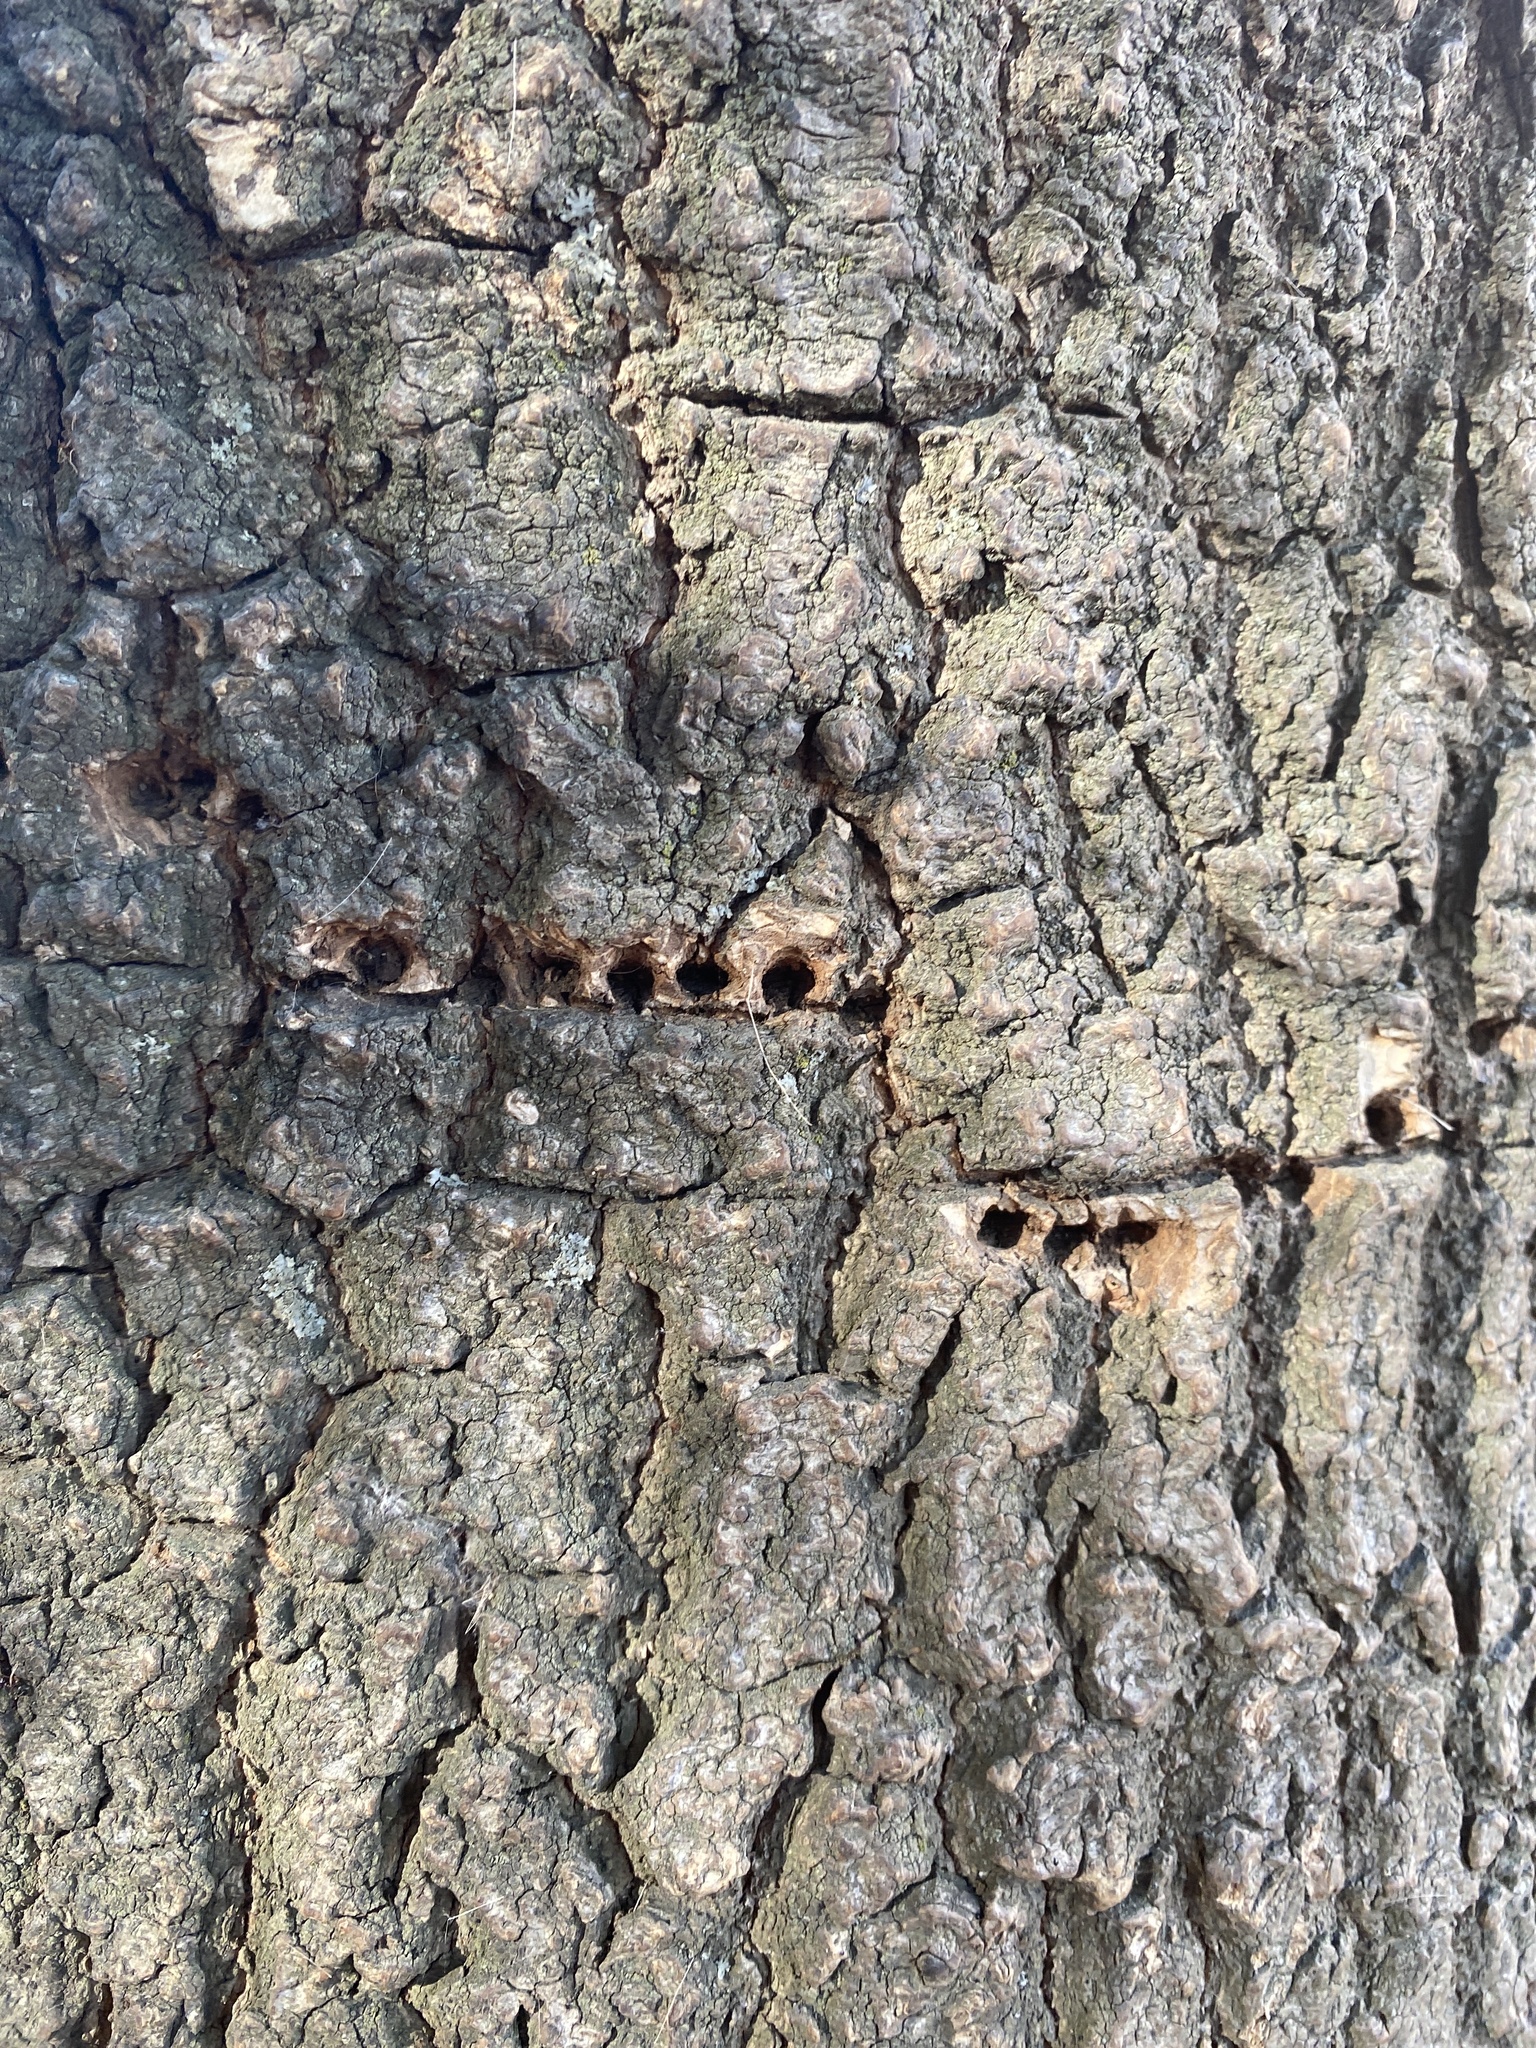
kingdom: Animalia
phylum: Chordata
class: Aves
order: Piciformes
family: Picidae
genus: Sphyrapicus
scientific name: Sphyrapicus
